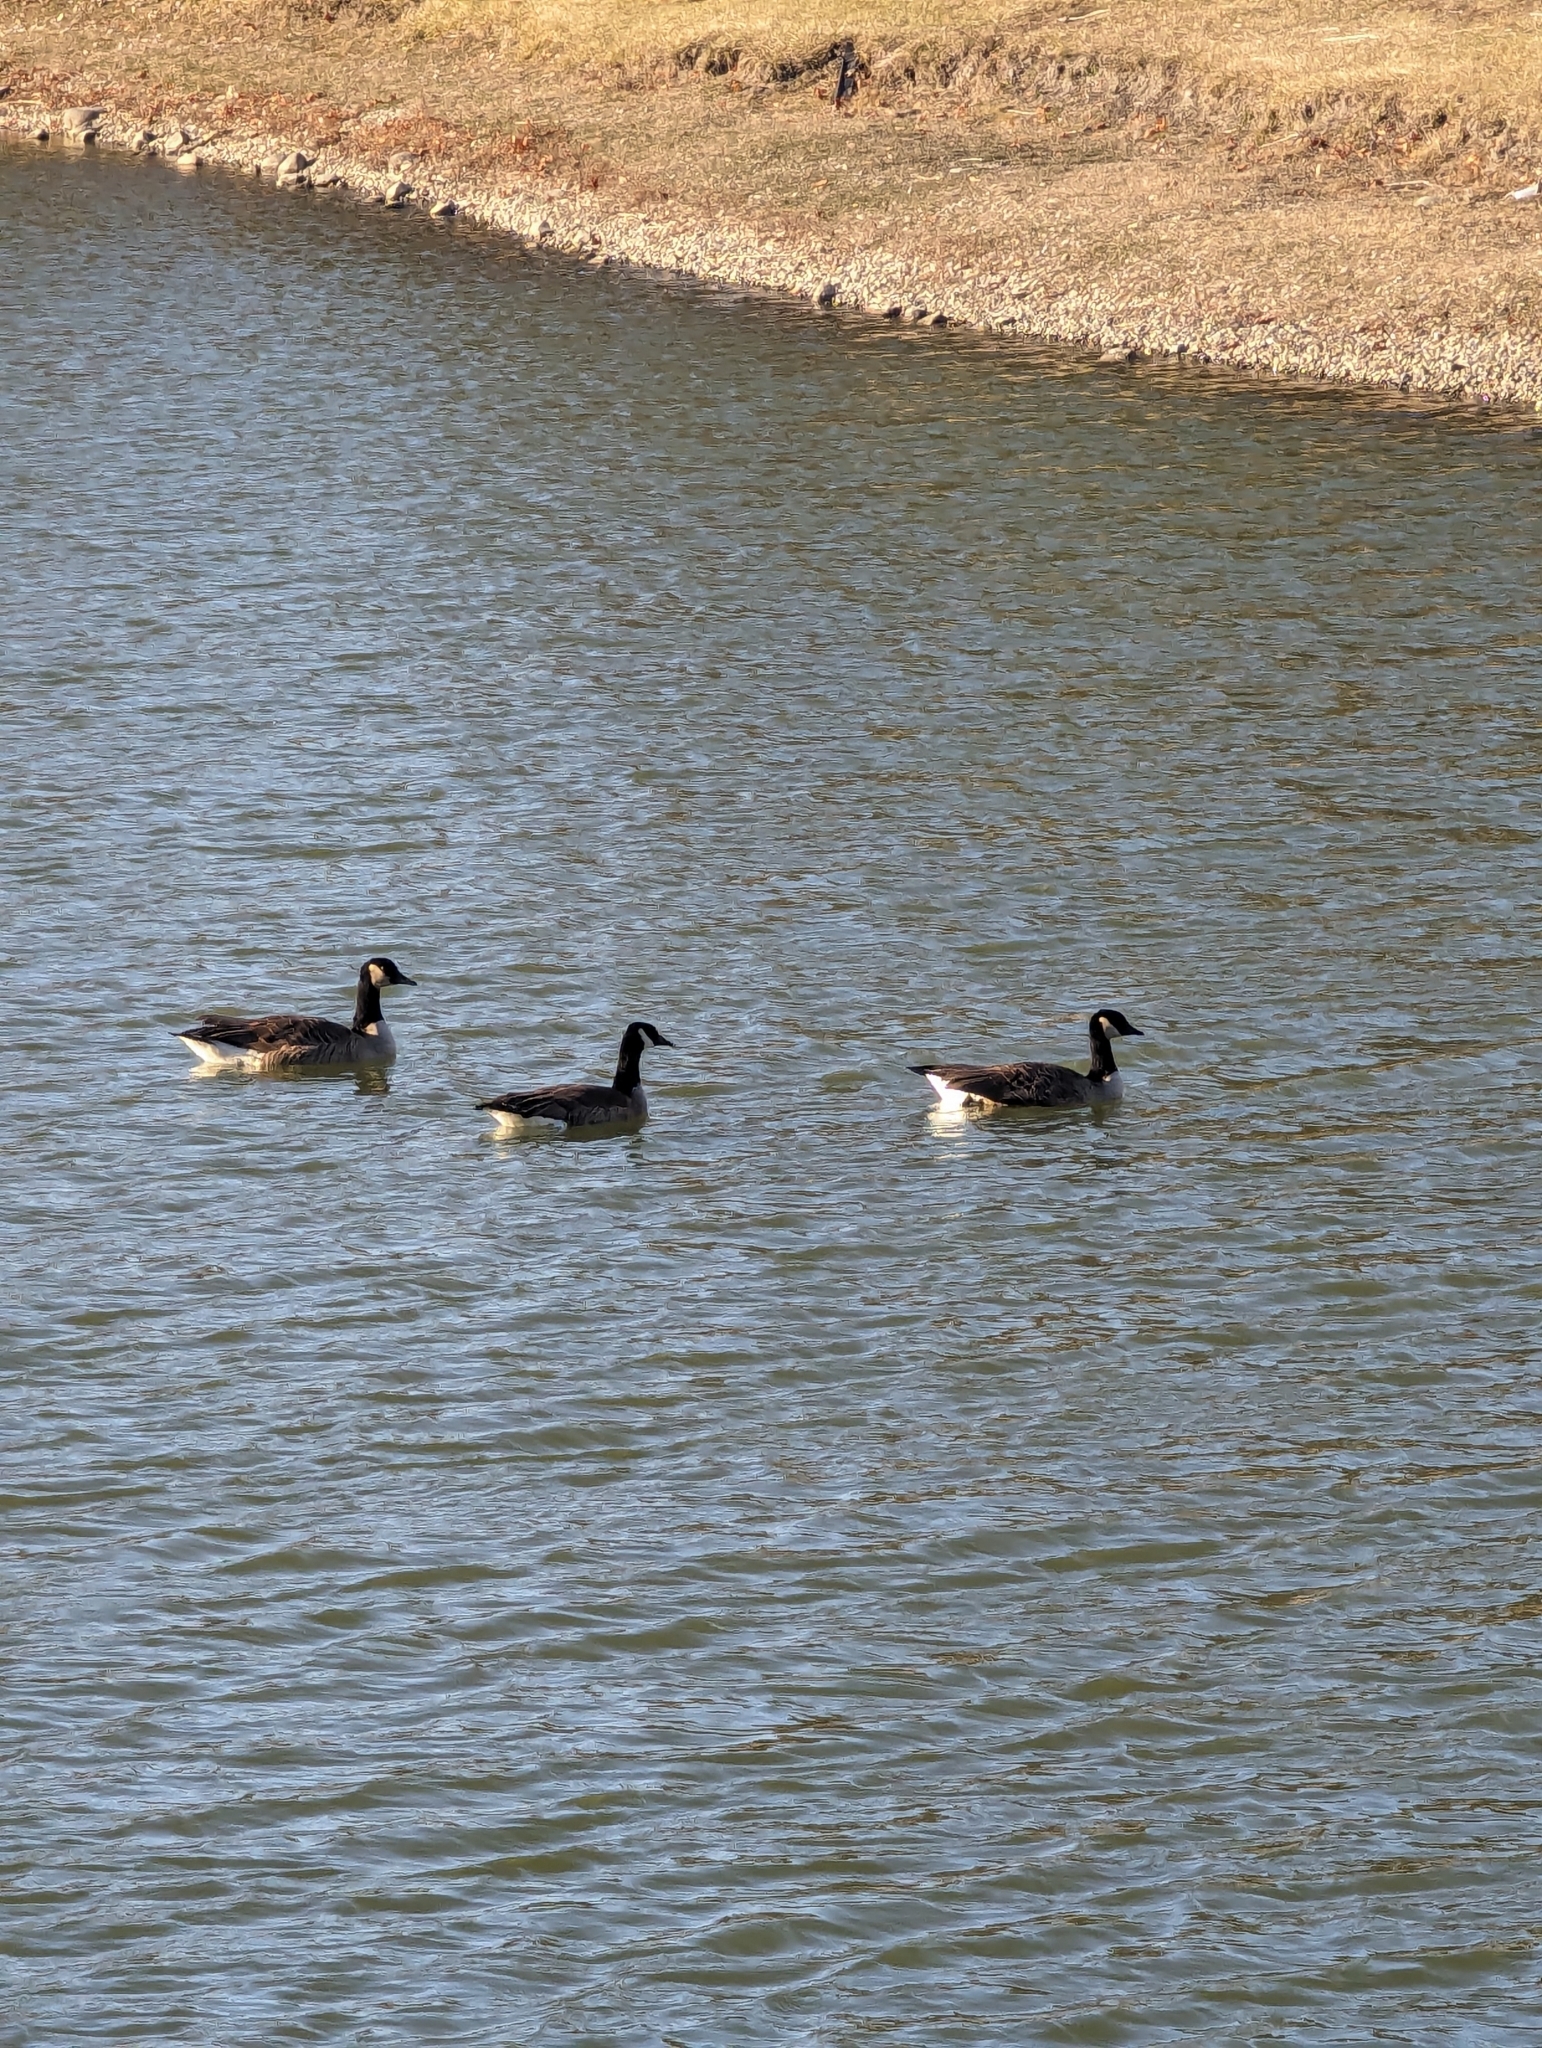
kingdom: Animalia
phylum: Chordata
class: Aves
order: Anseriformes
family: Anatidae
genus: Branta
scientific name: Branta canadensis
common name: Canada goose
